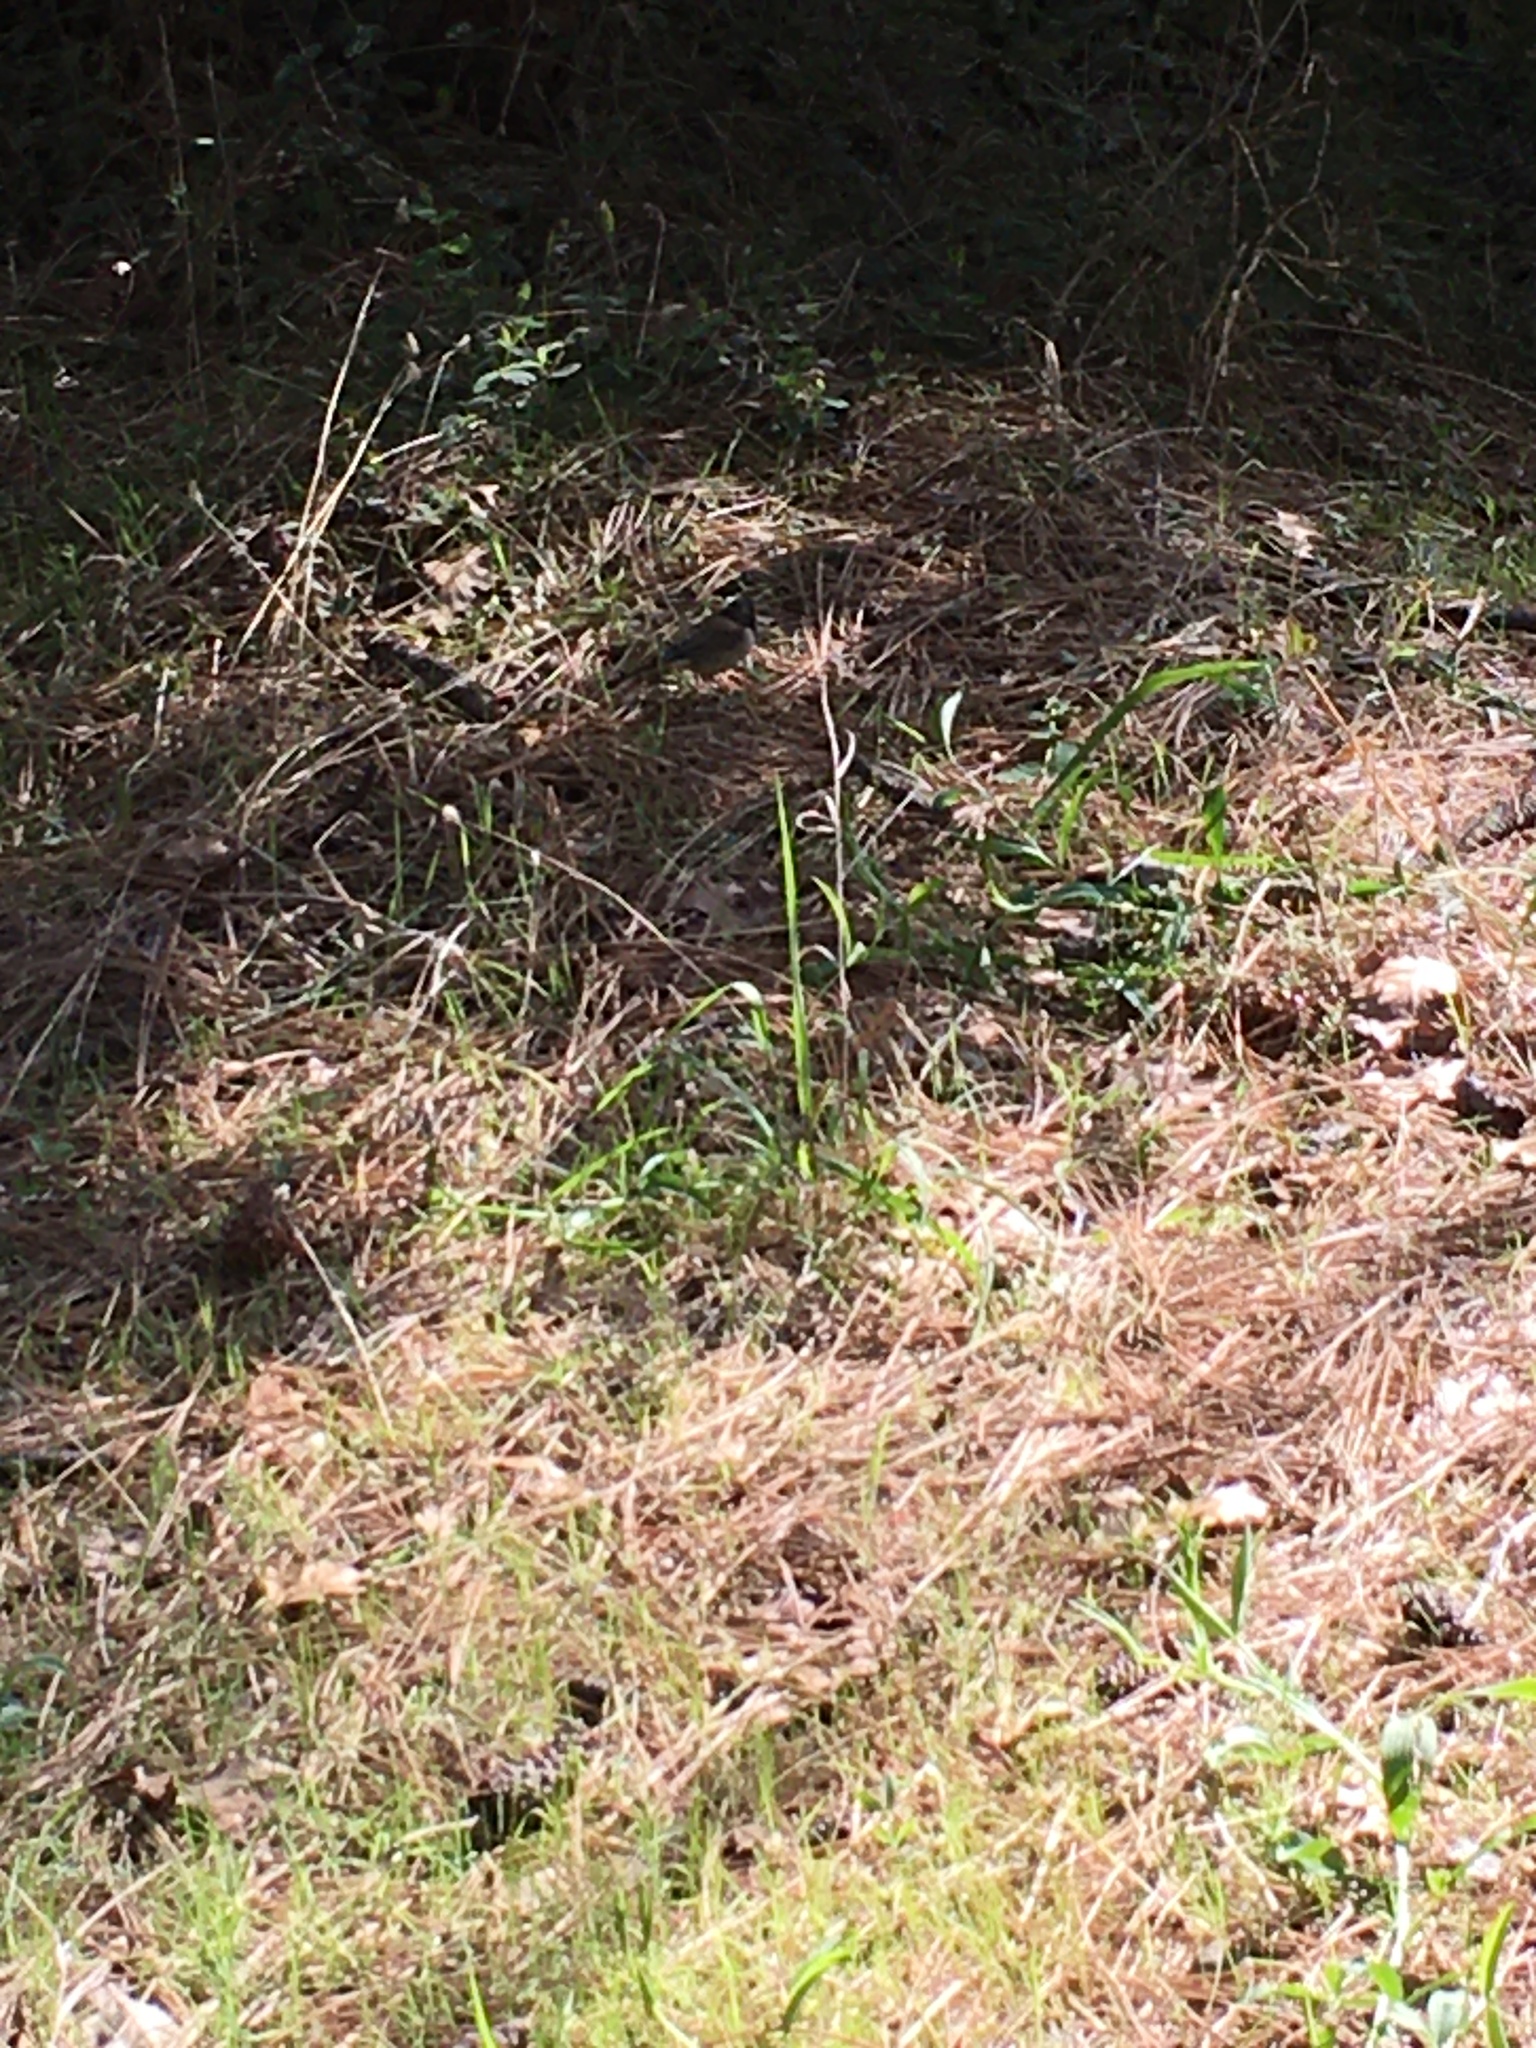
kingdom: Animalia
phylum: Chordata
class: Aves
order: Passeriformes
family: Passerellidae
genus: Junco
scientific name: Junco hyemalis
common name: Dark-eyed junco
